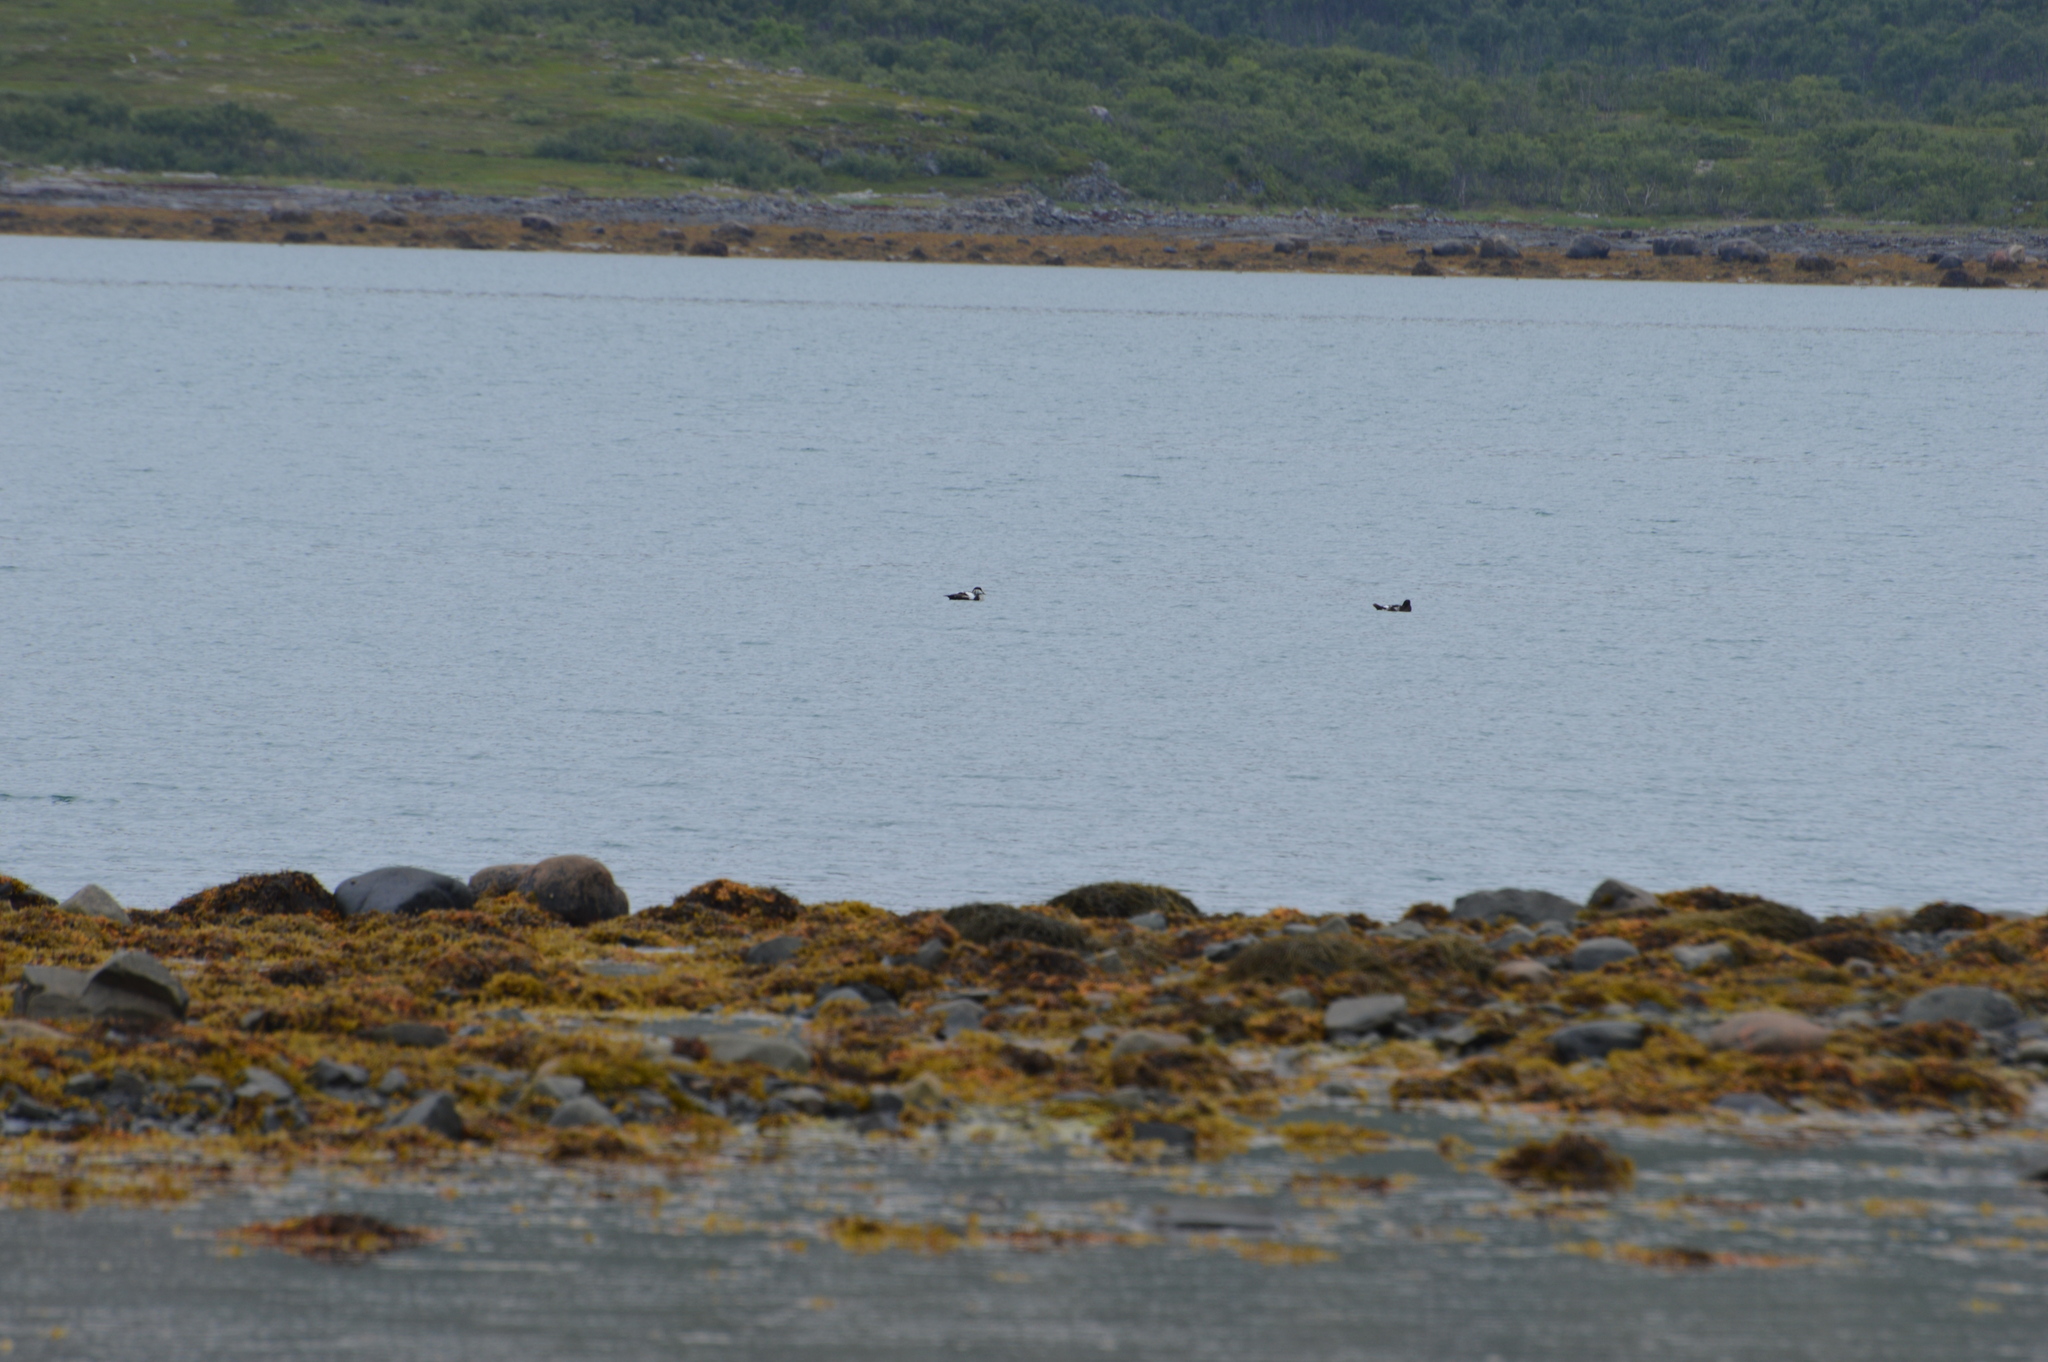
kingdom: Animalia
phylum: Chordata
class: Aves
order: Anseriformes
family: Anatidae
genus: Somateria
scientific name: Somateria mollissima
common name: Common eider
